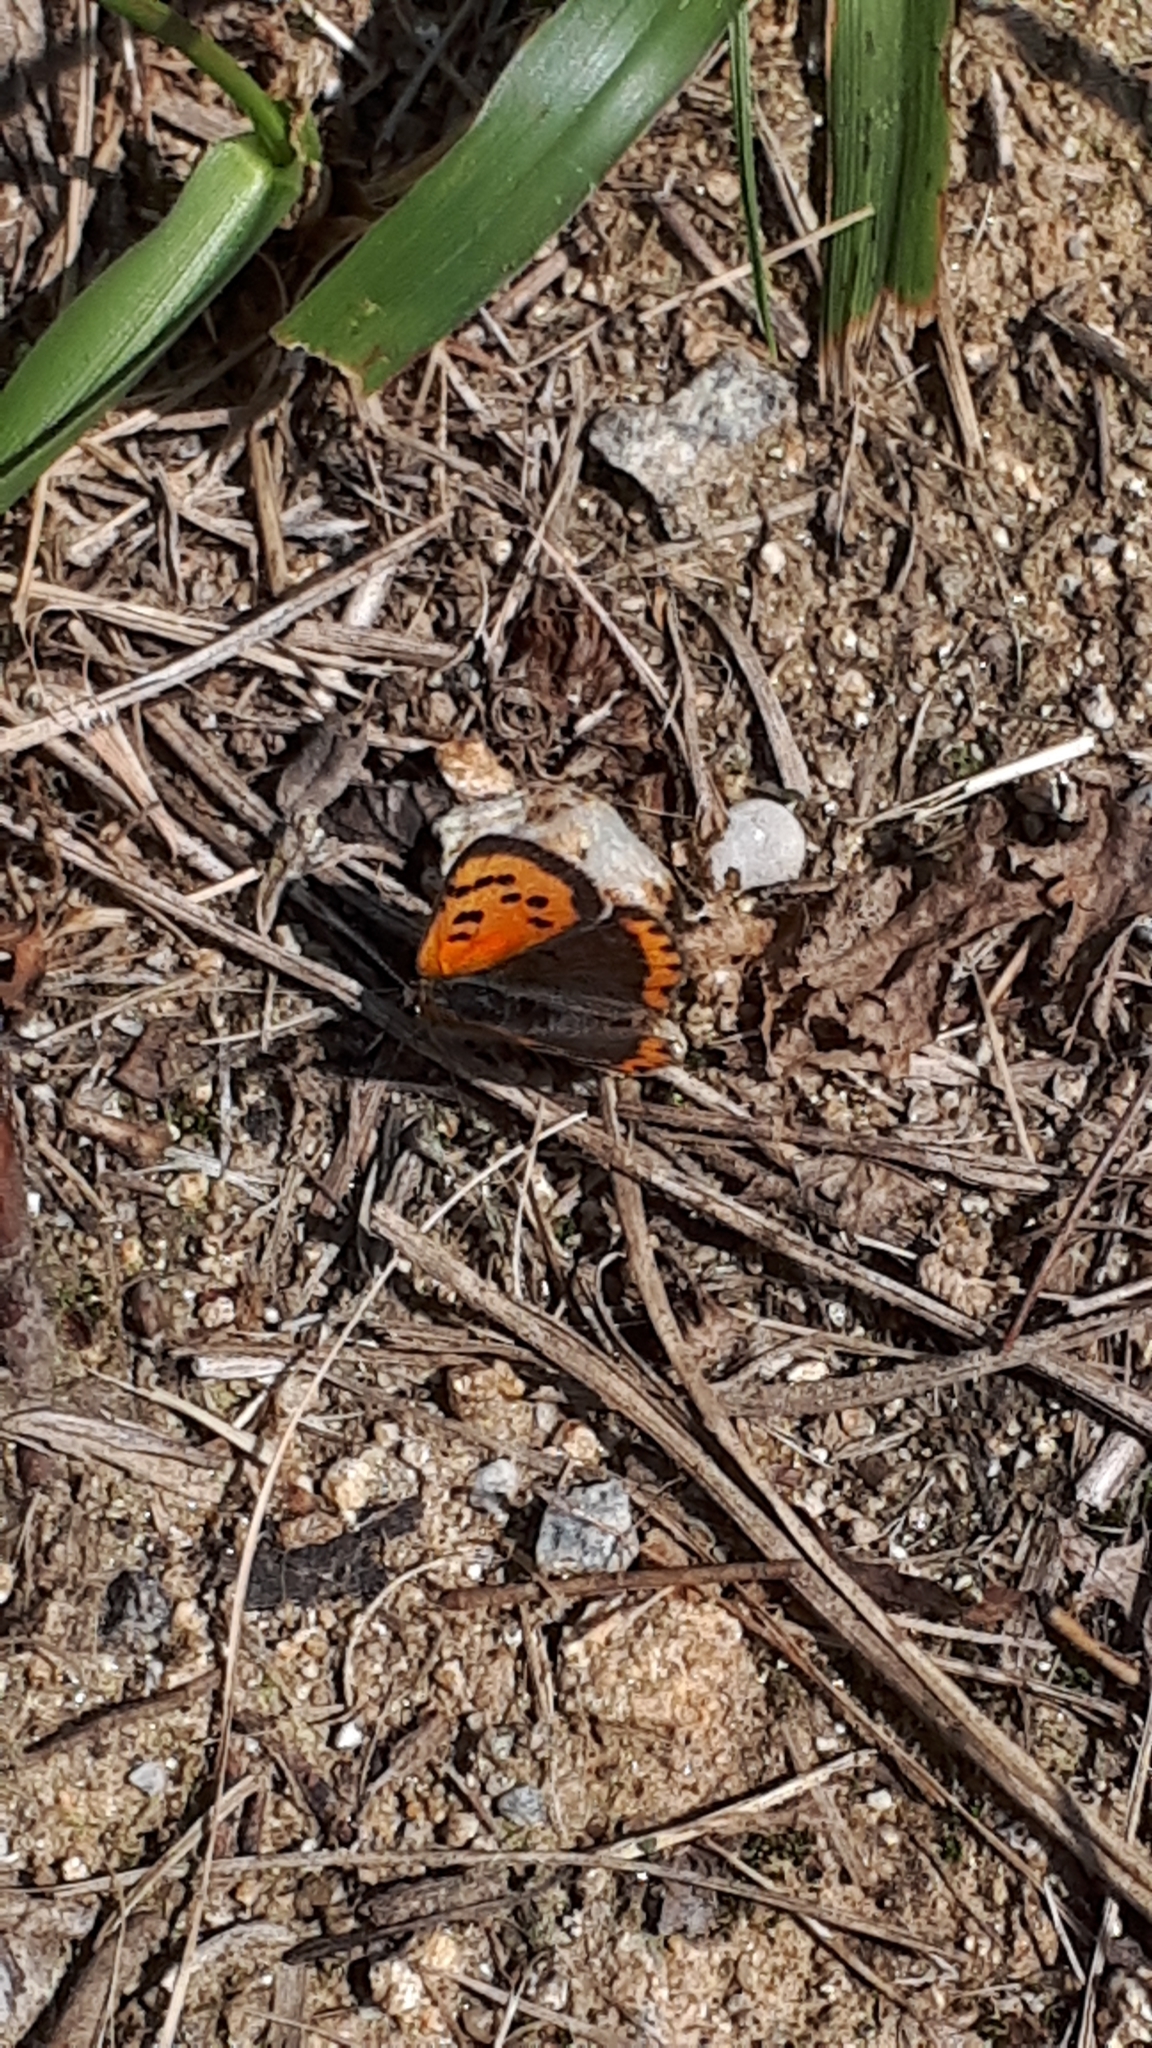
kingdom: Animalia
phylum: Arthropoda
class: Insecta
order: Lepidoptera
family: Lycaenidae
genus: Lycaena
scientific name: Lycaena phlaeas
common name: Small copper
